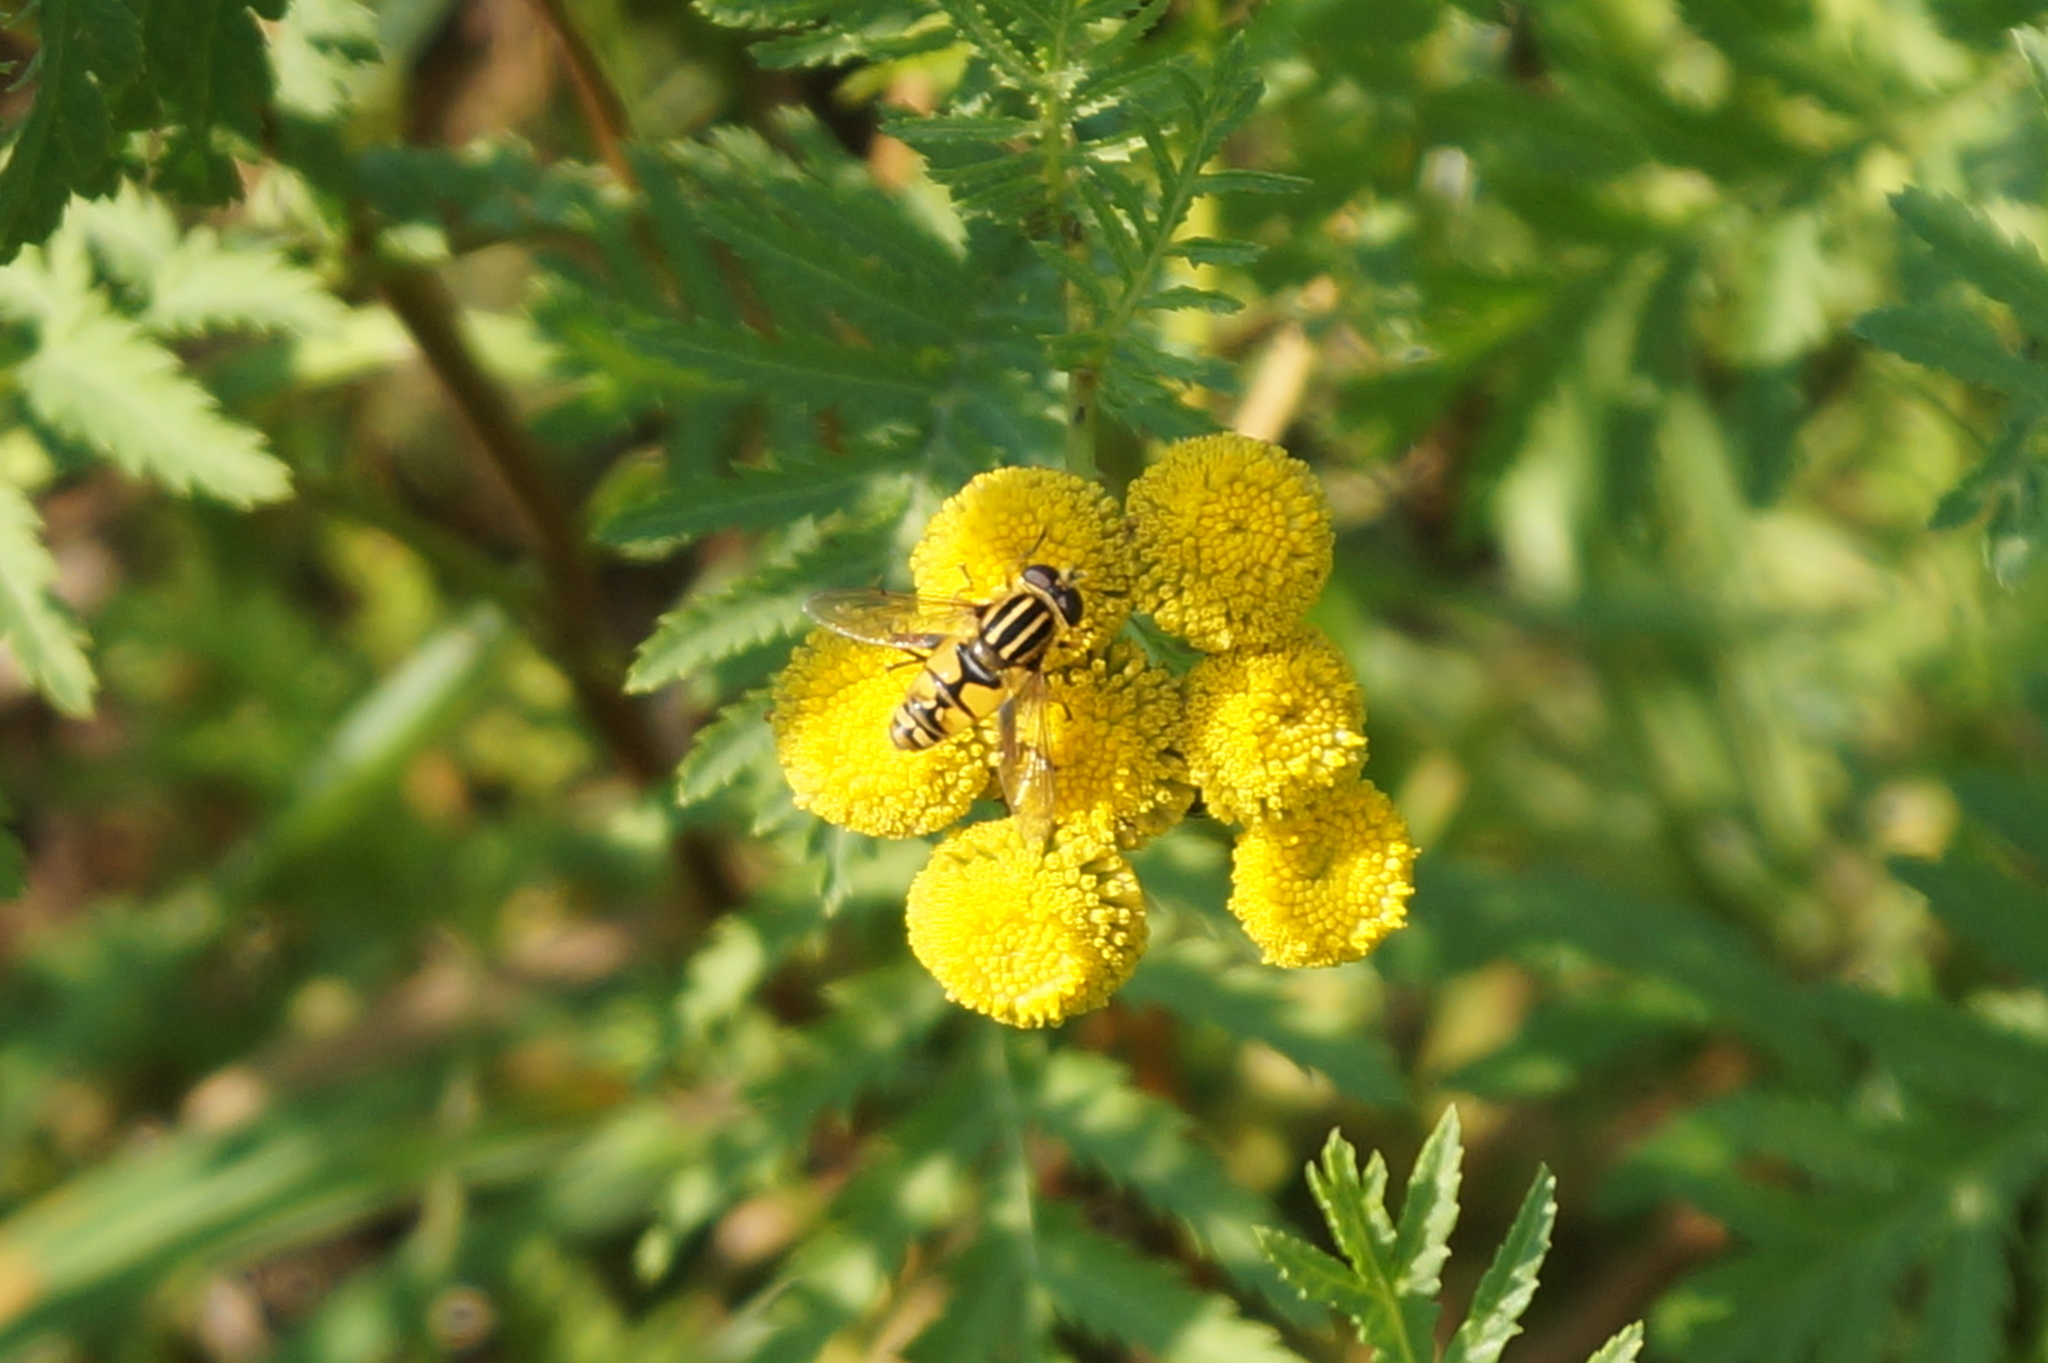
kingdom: Animalia
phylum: Arthropoda
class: Insecta
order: Diptera
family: Syrphidae
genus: Helophilus
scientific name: Helophilus pendulus
